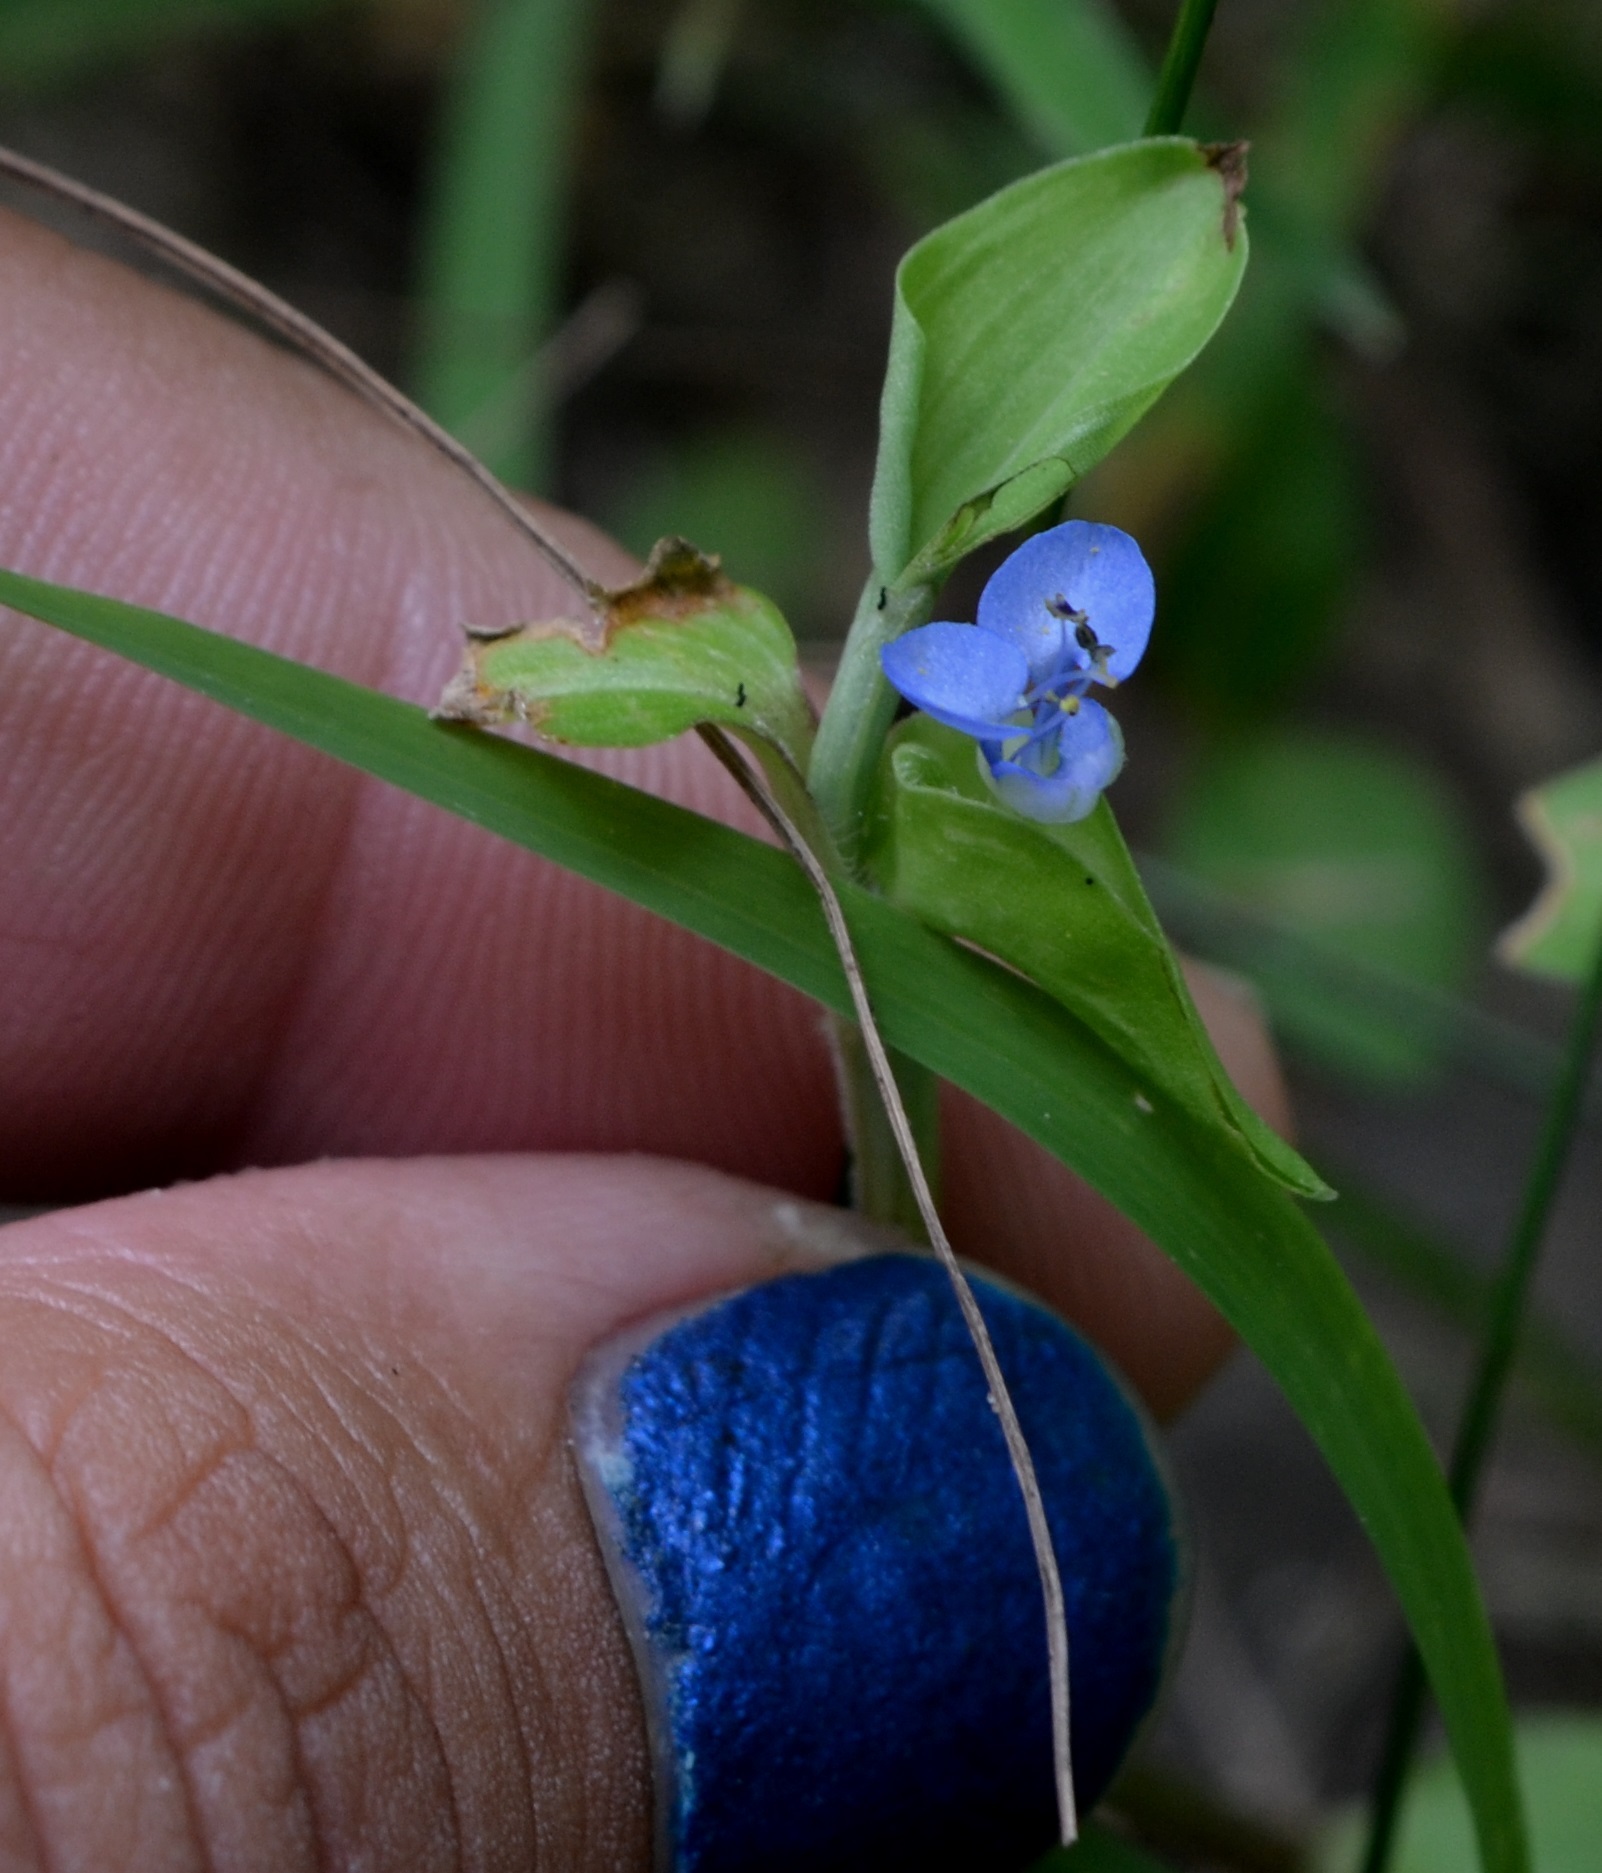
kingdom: Plantae
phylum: Tracheophyta
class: Liliopsida
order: Commelinales
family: Commelinaceae
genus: Commelina
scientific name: Commelina diffusa
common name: Climbing dayflower
